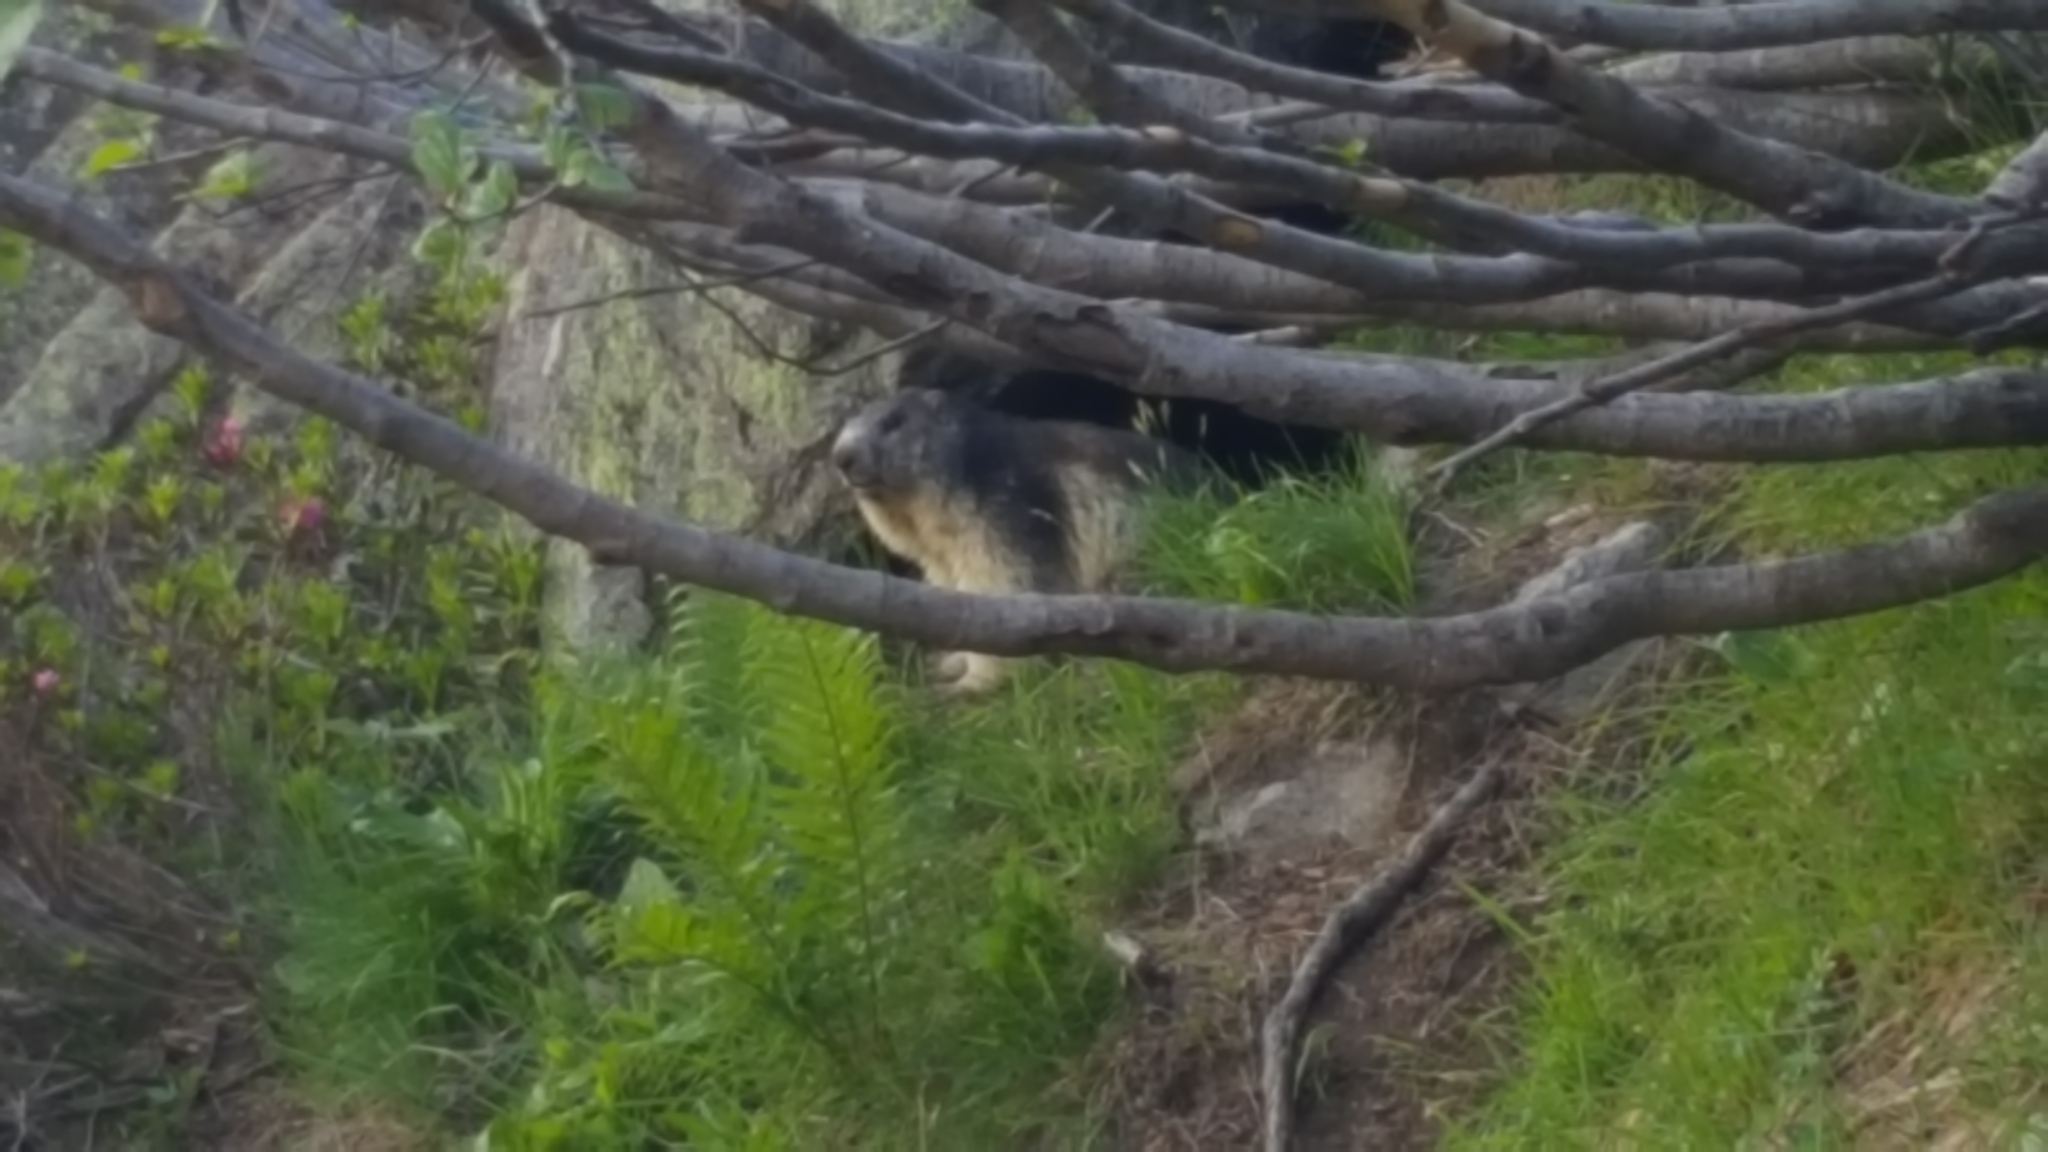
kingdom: Animalia
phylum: Chordata
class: Mammalia
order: Rodentia
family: Sciuridae
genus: Marmota
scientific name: Marmota marmota
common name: Alpine marmot
